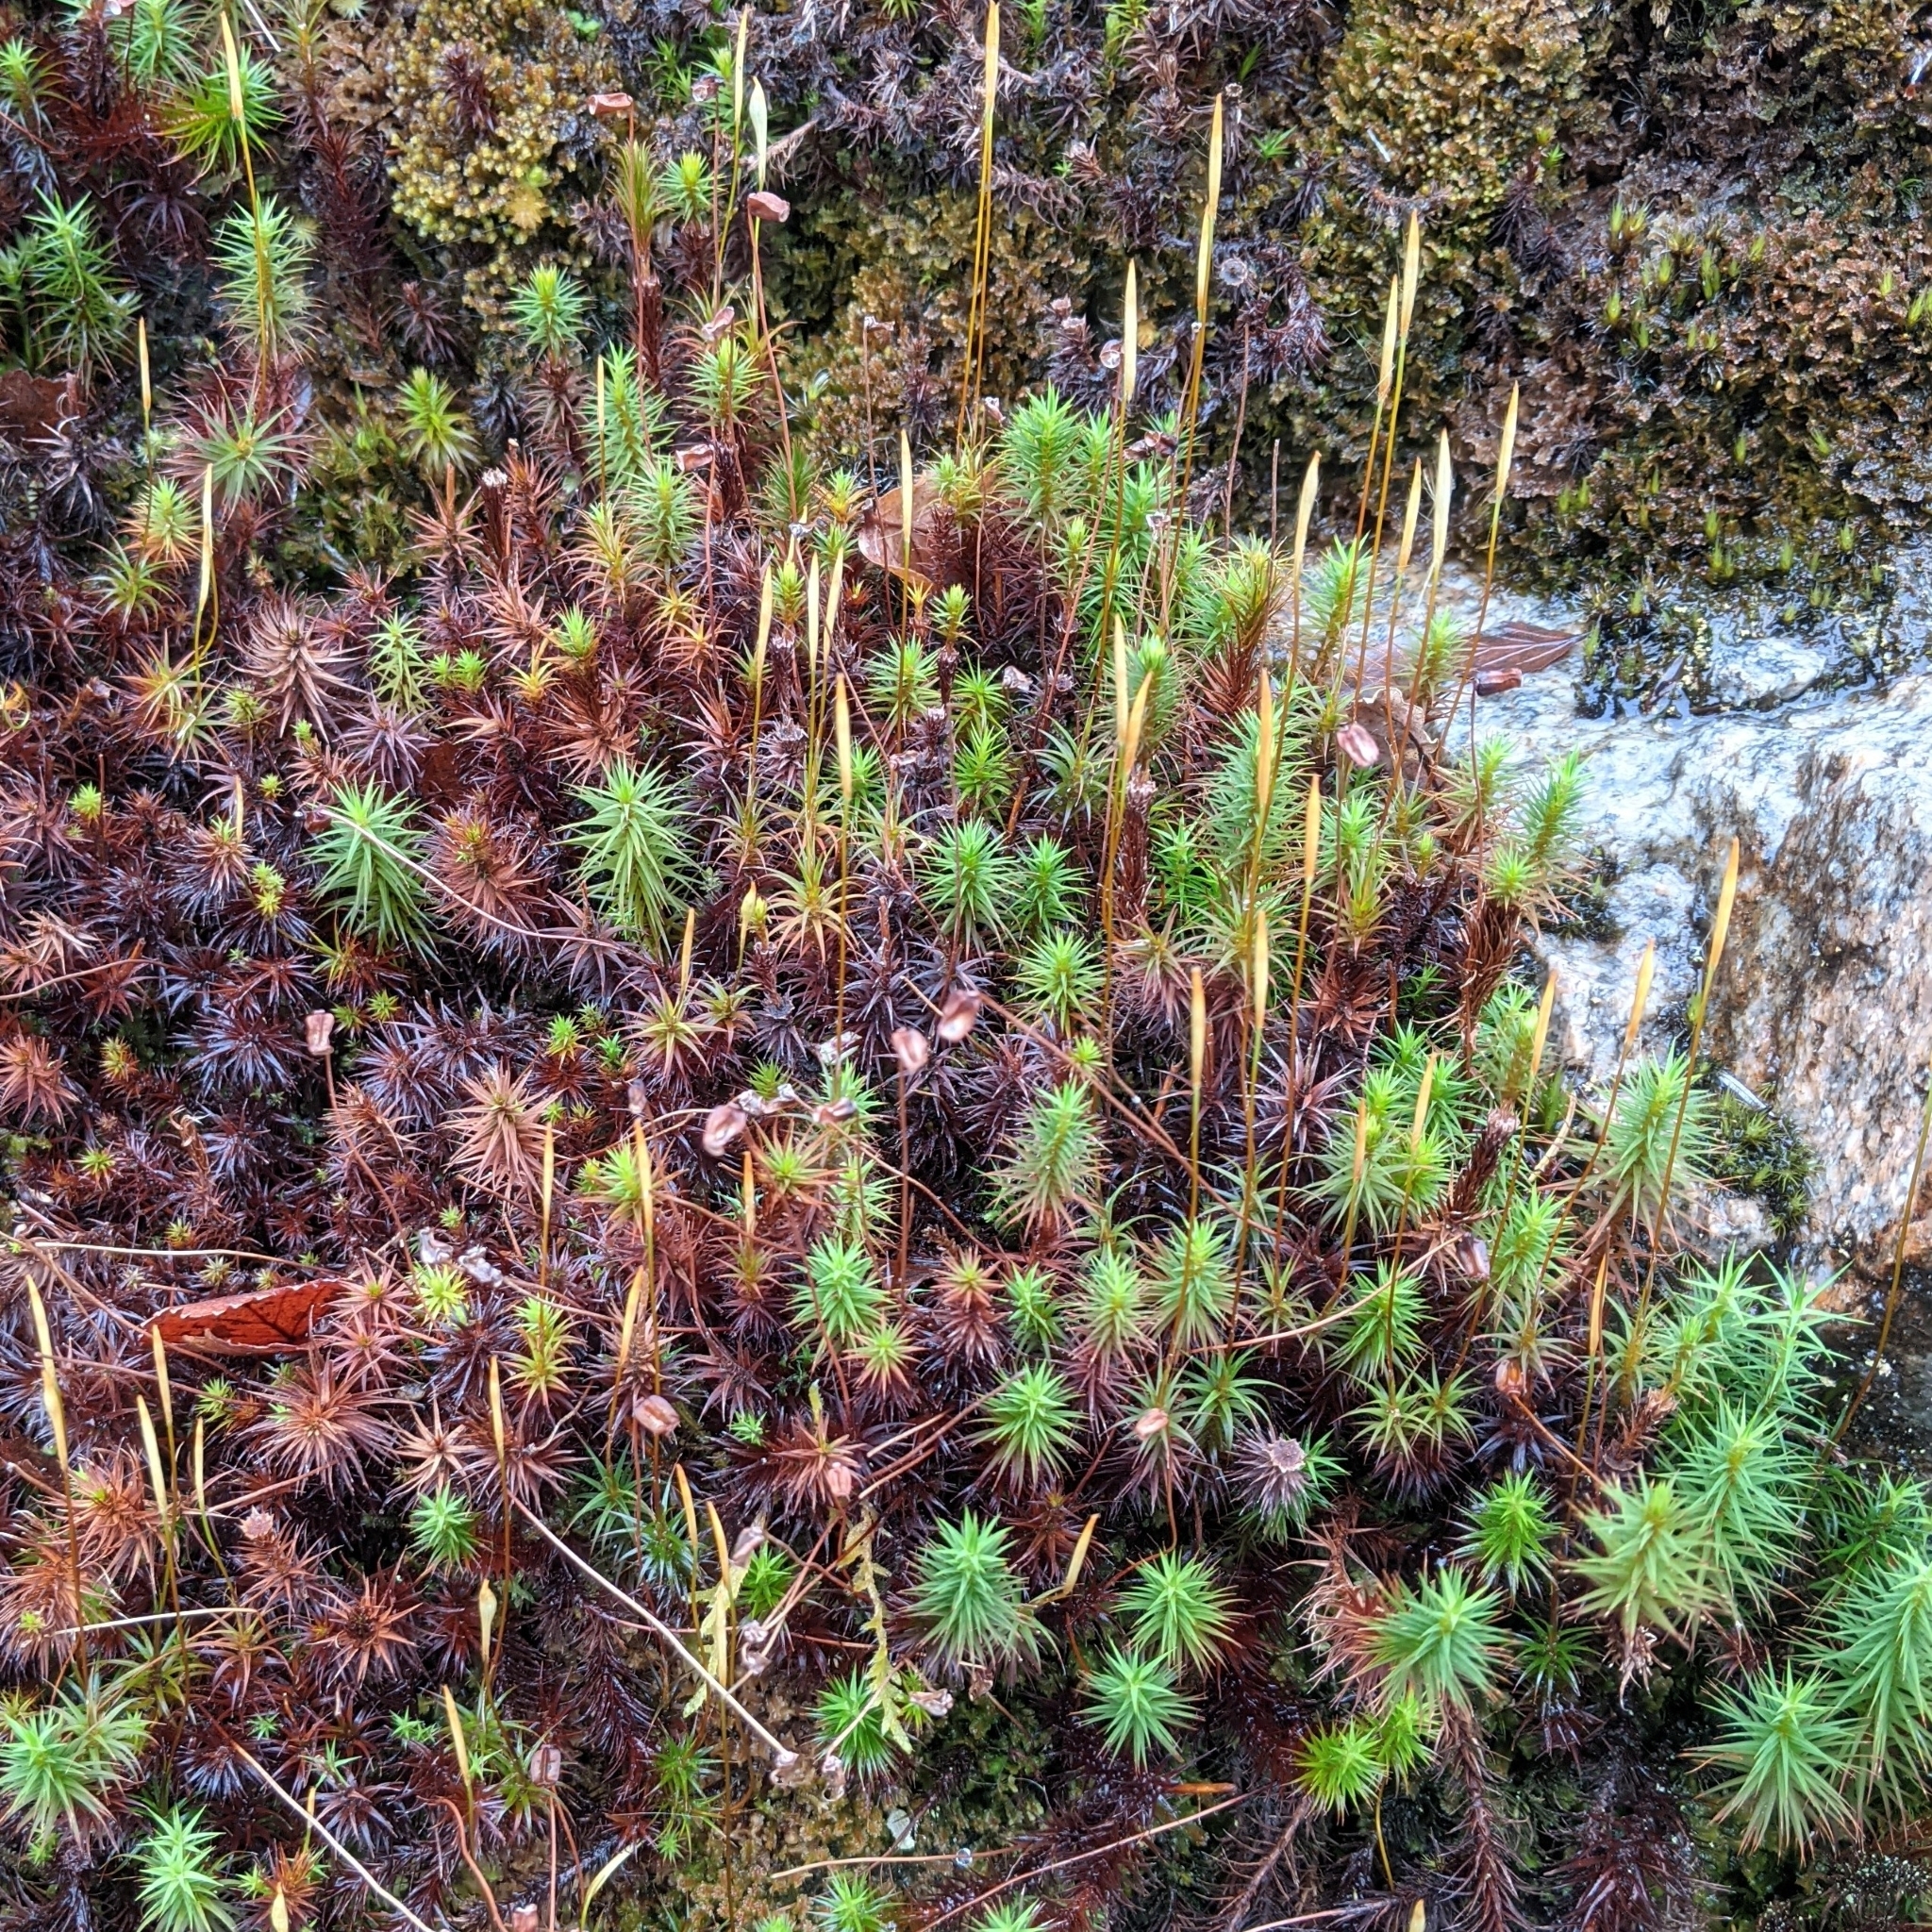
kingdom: Plantae
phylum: Bryophyta
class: Polytrichopsida
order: Polytrichales
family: Polytrichaceae
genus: Polytrichum
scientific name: Polytrichum commune
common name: Common haircap
